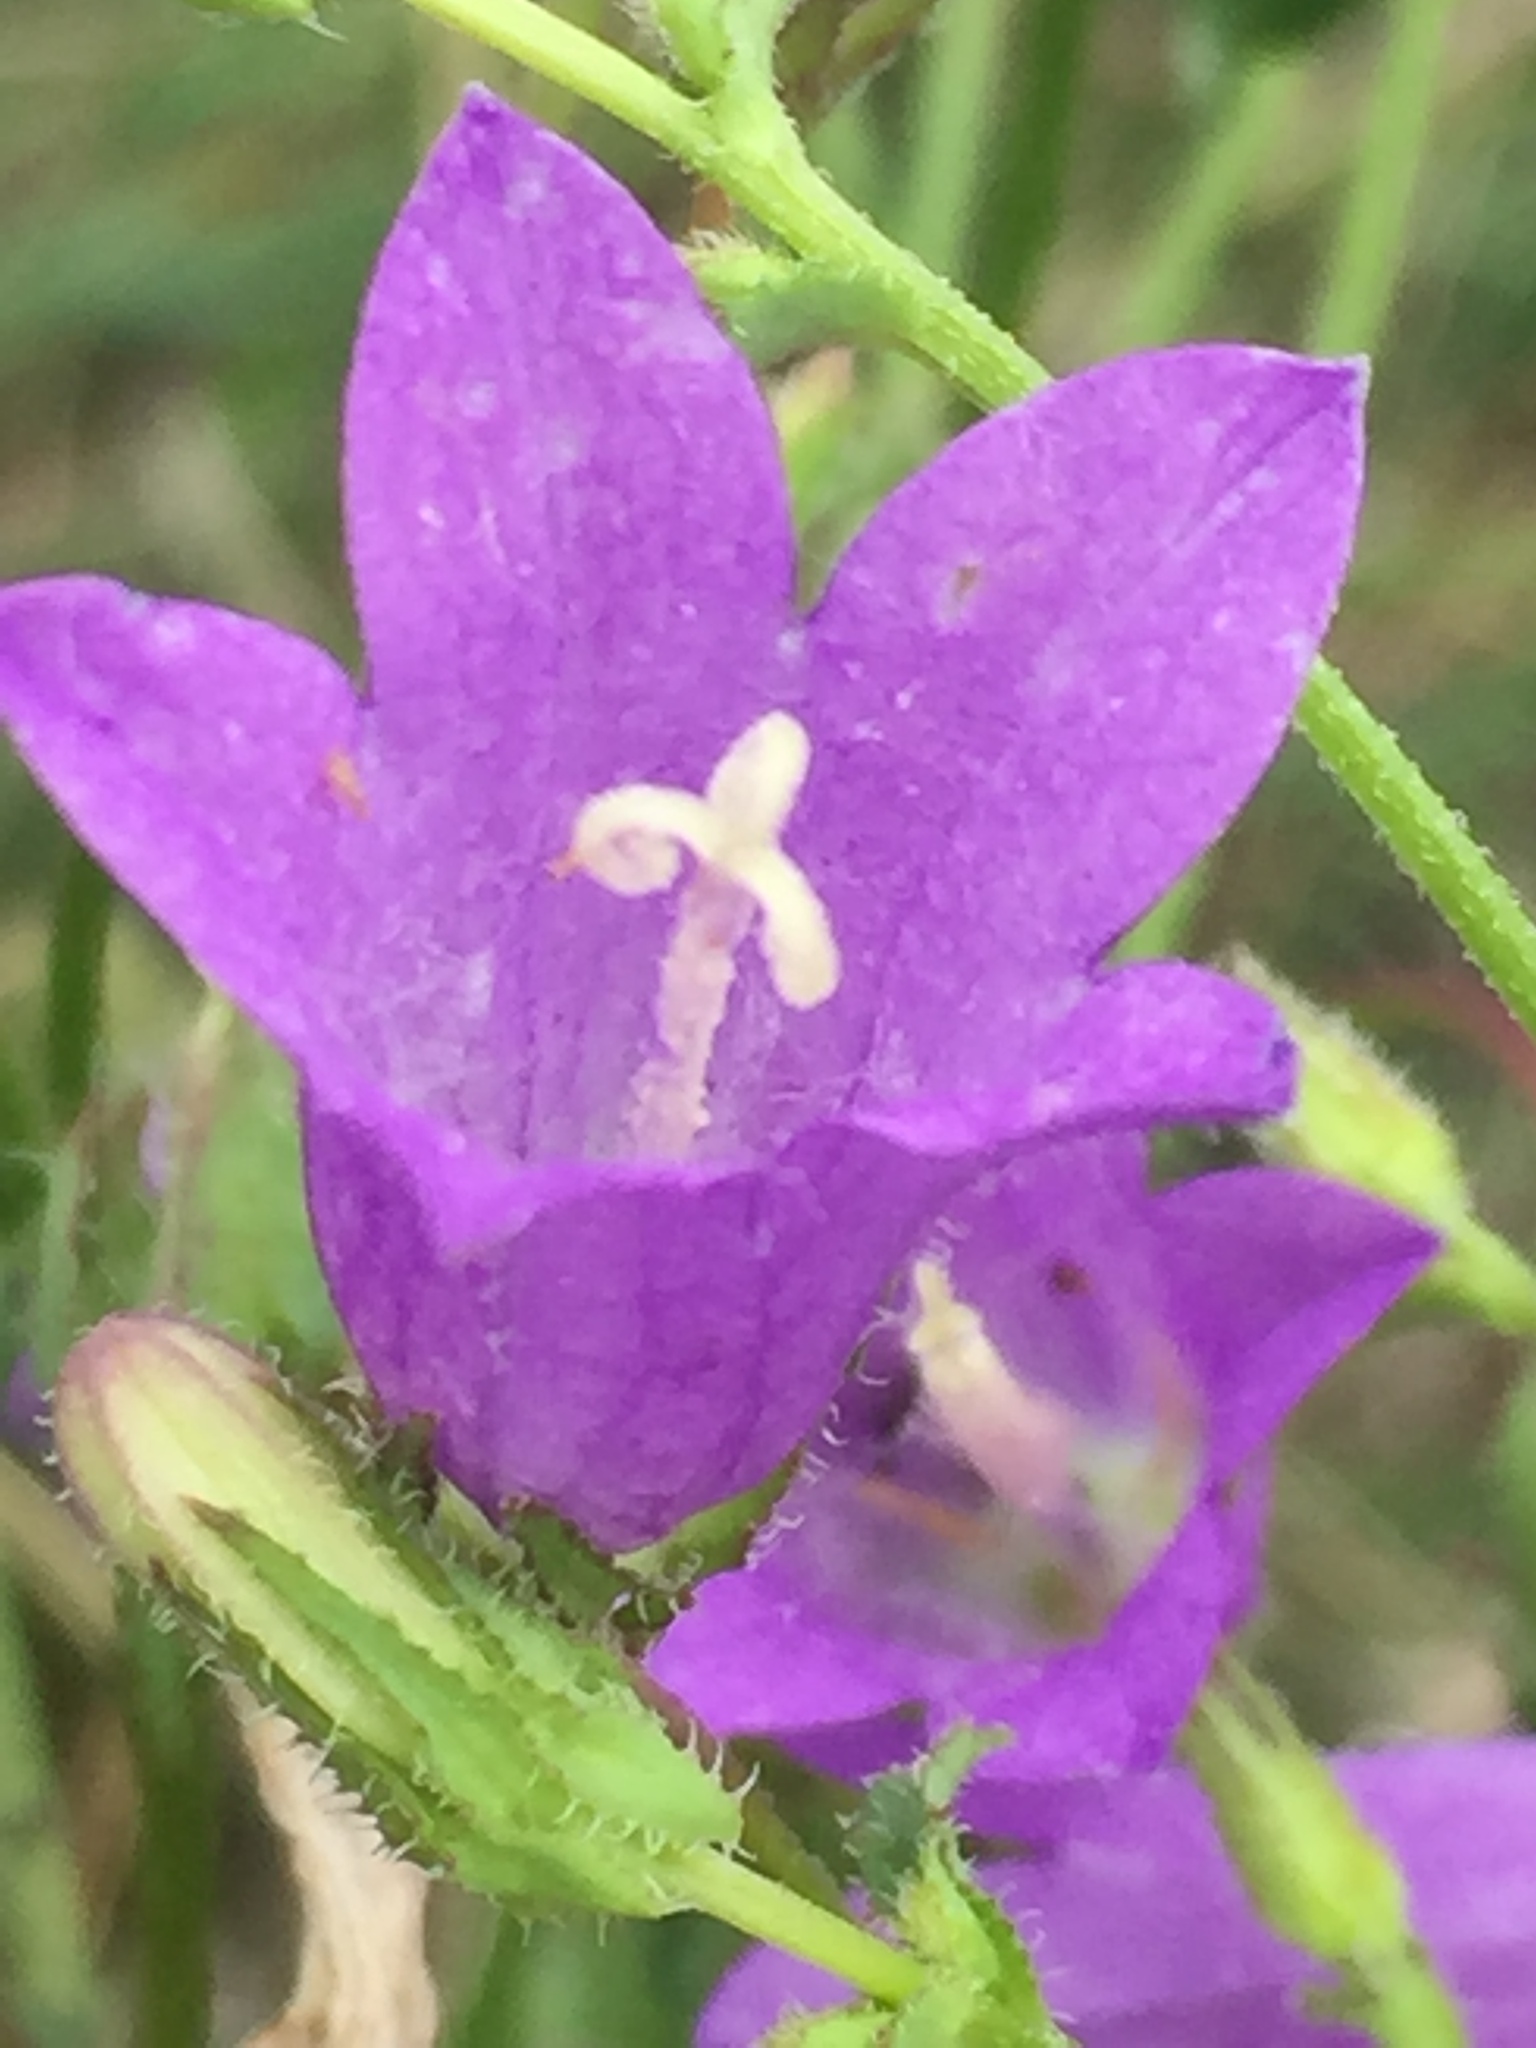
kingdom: Plantae
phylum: Tracheophyta
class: Magnoliopsida
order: Asterales
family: Campanulaceae
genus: Campanula
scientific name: Campanula sibirica
